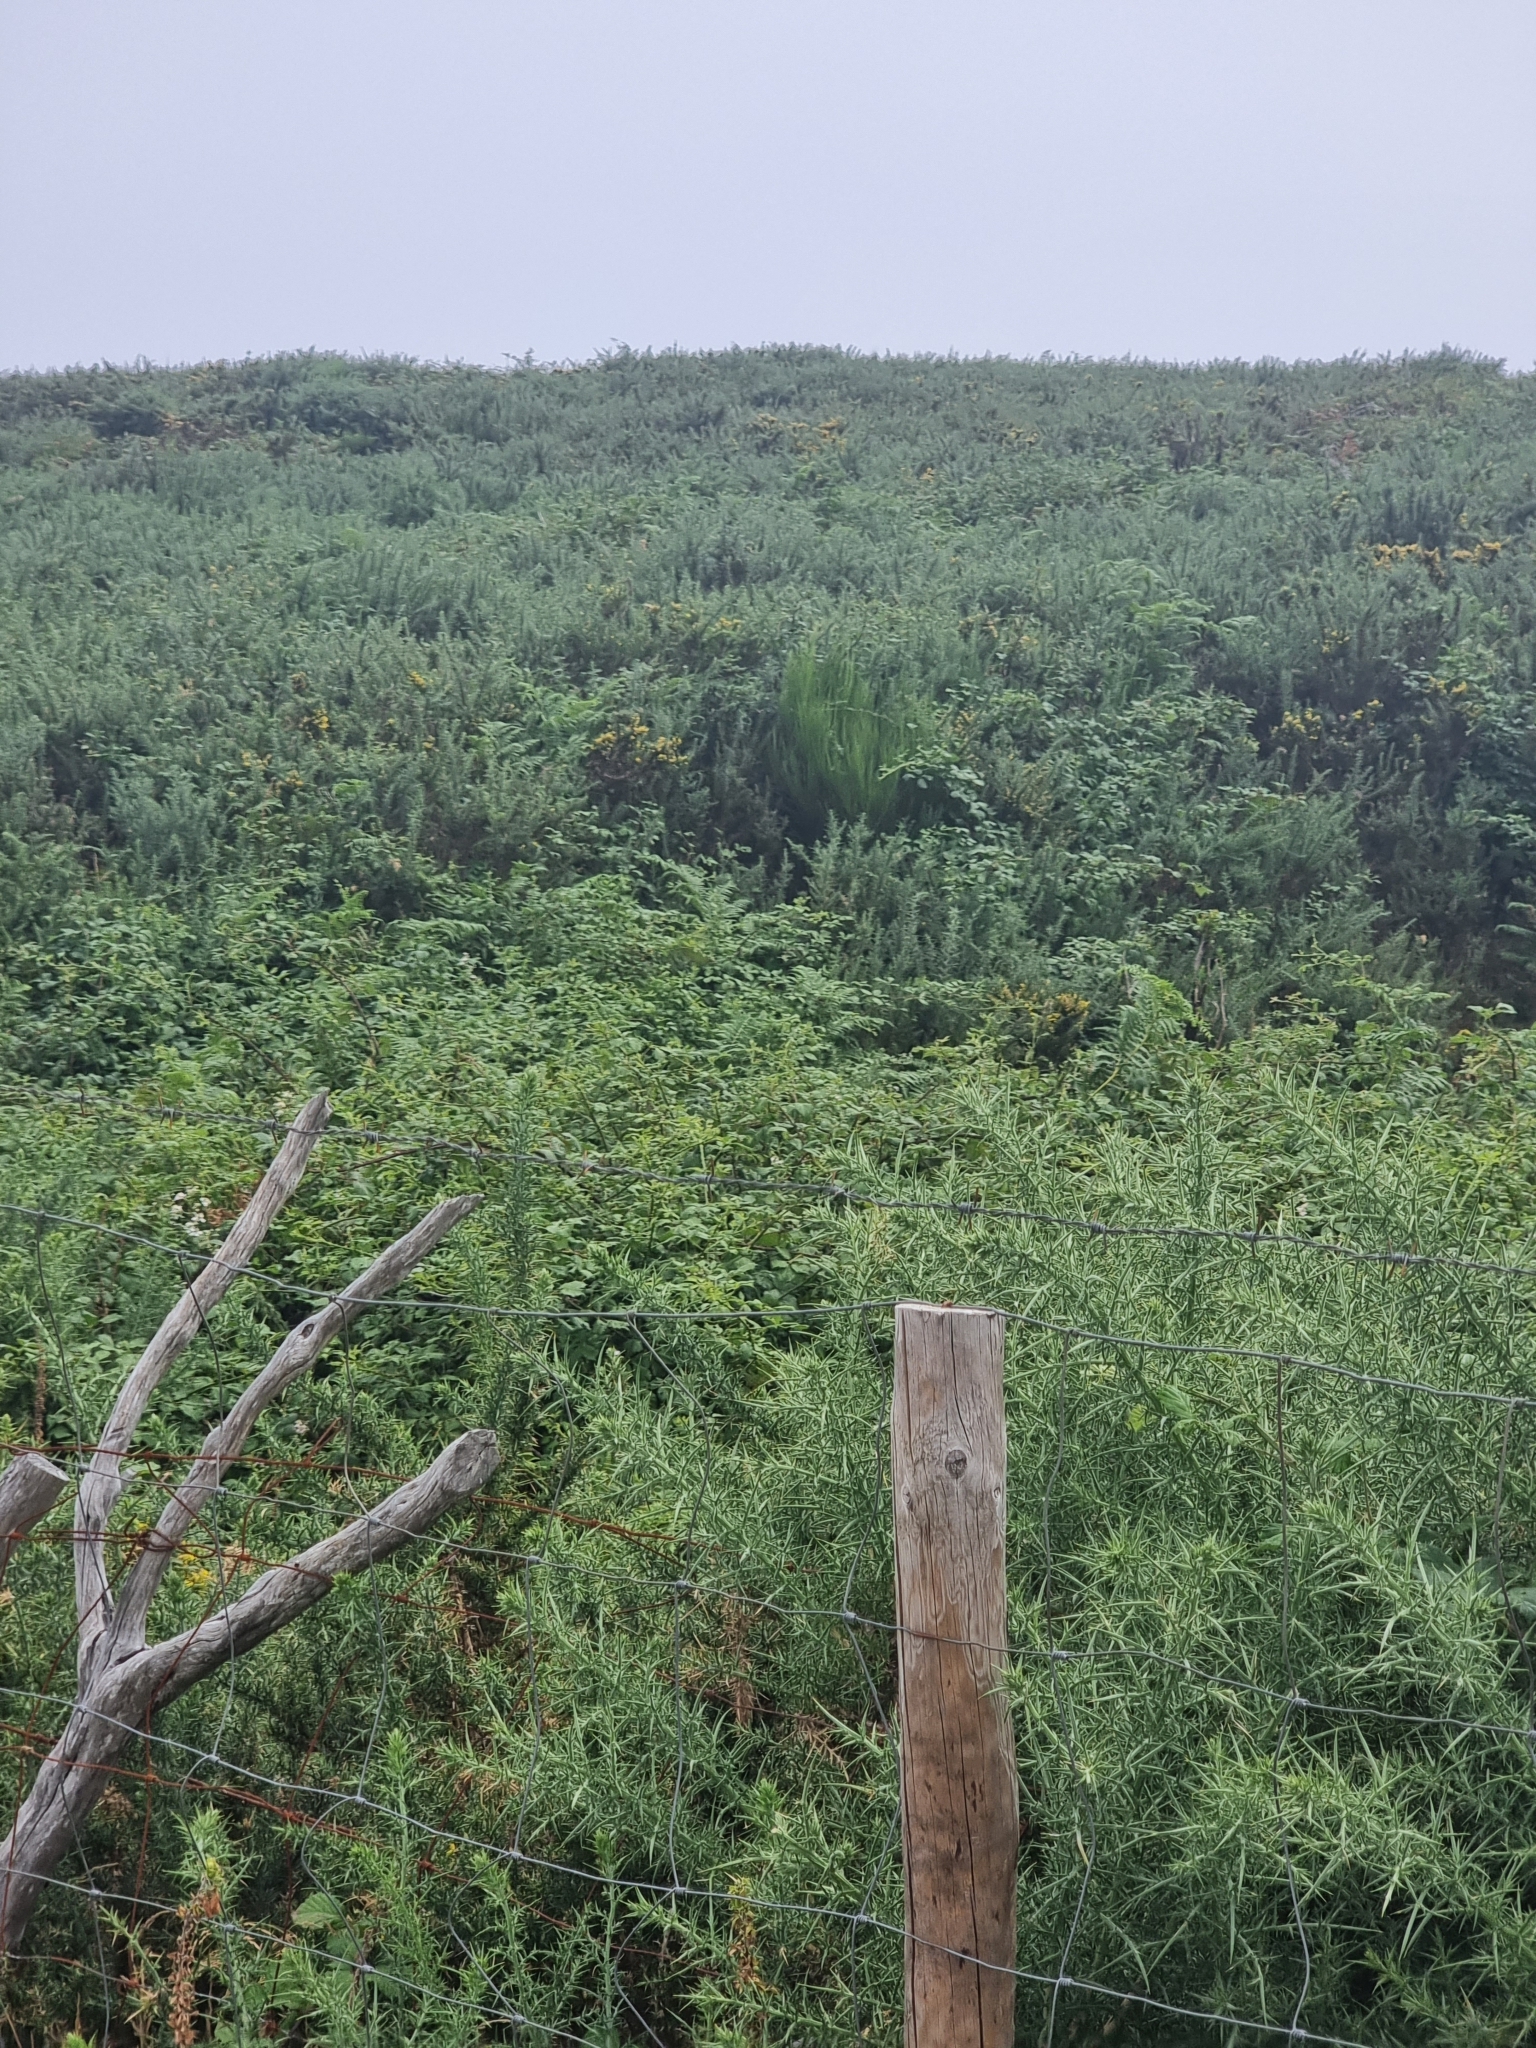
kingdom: Plantae
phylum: Tracheophyta
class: Magnoliopsida
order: Fabales
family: Fabaceae
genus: Ulex
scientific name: Ulex europaeus
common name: Common gorse
